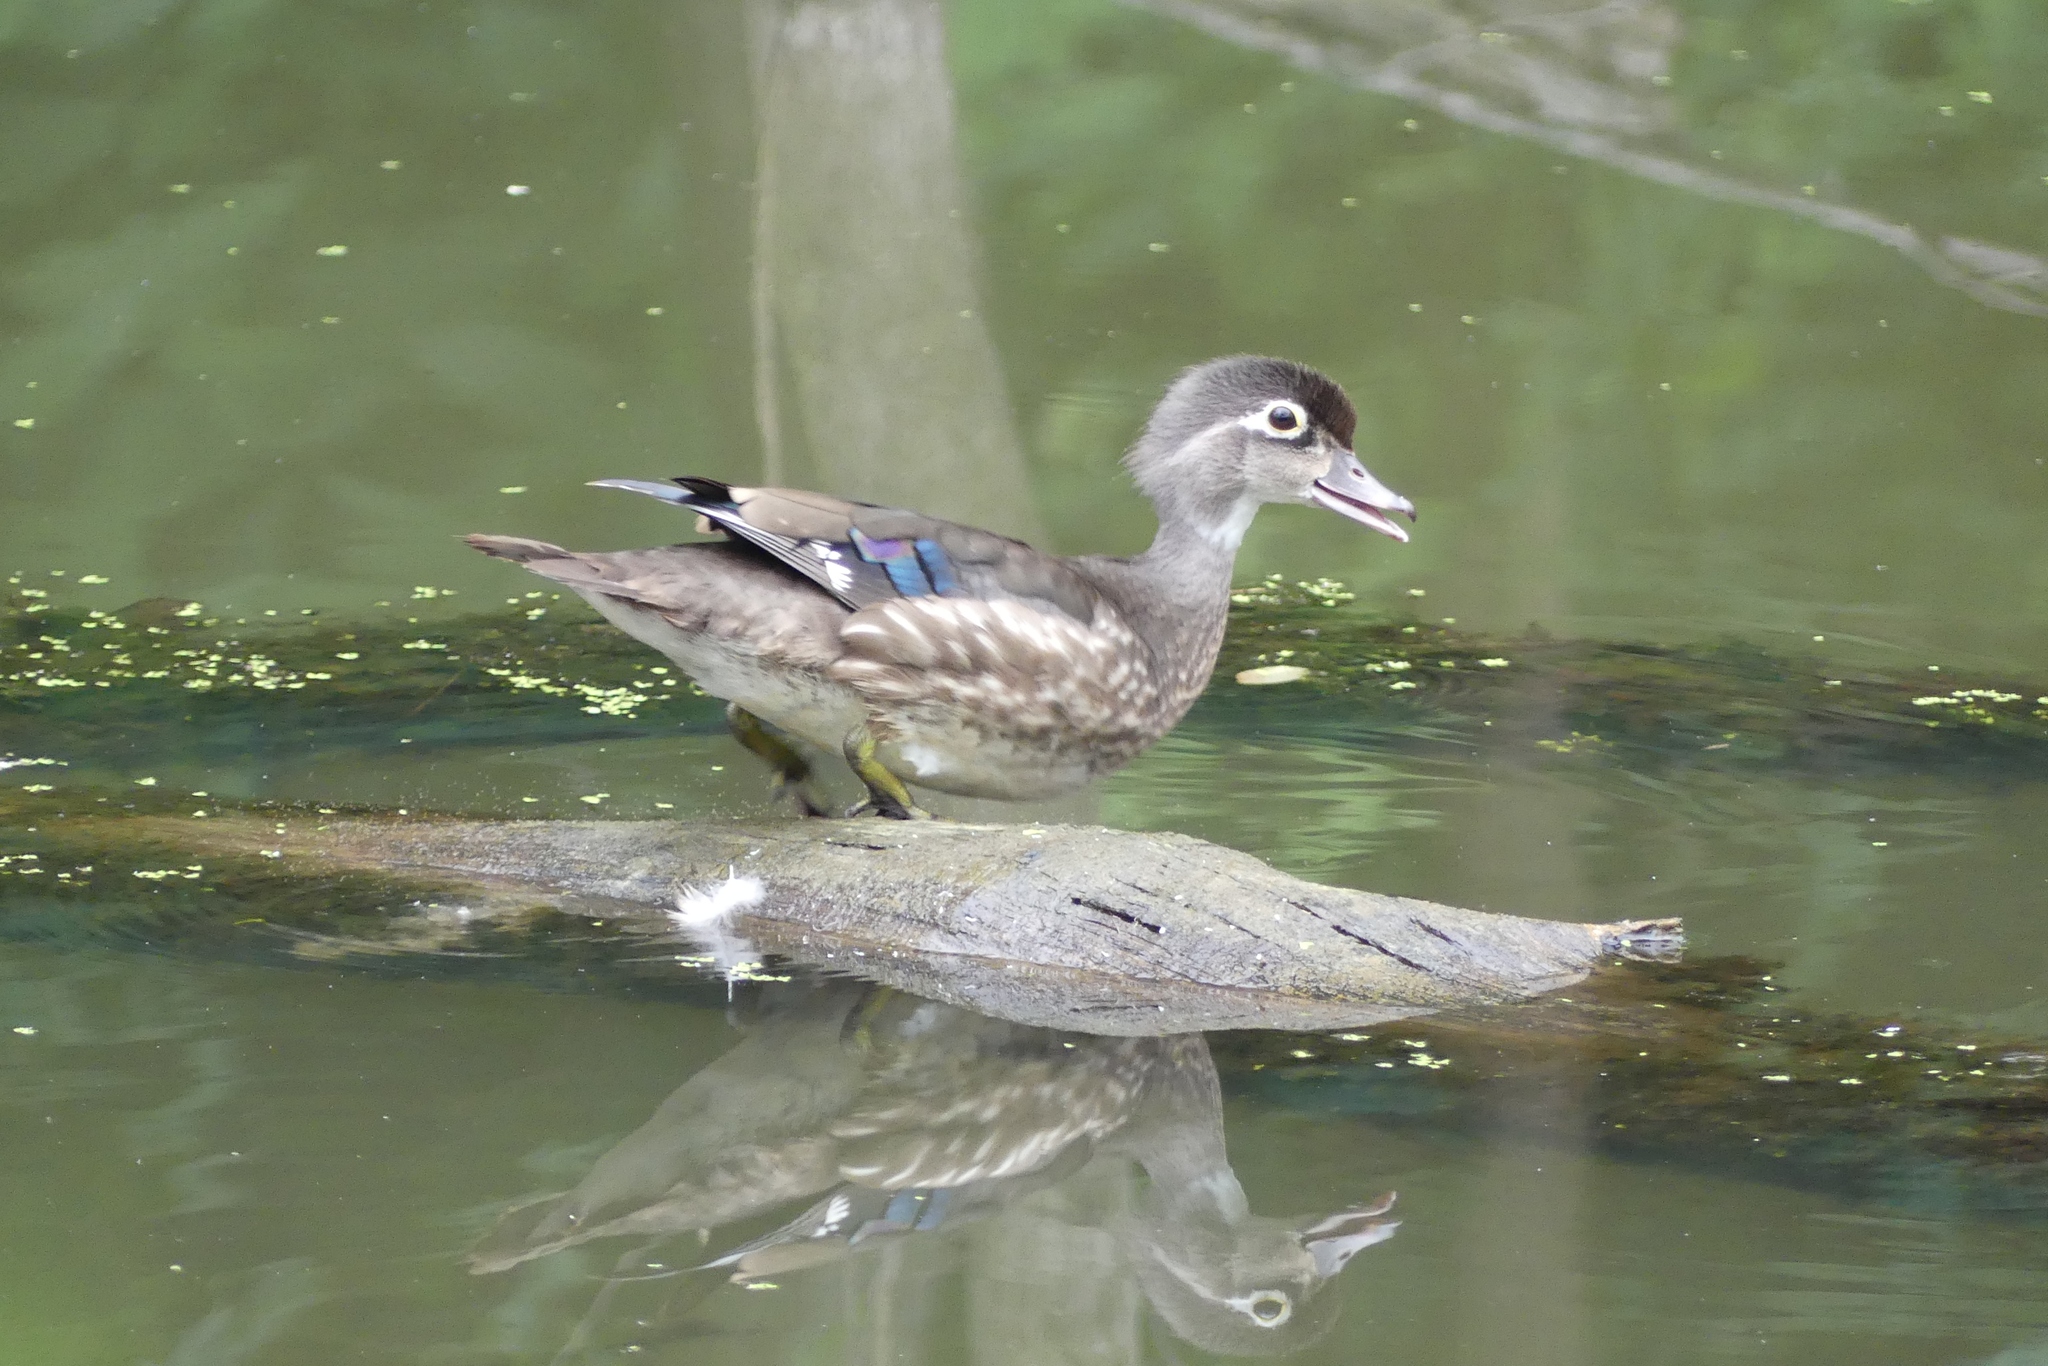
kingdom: Animalia
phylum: Chordata
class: Aves
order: Anseriformes
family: Anatidae
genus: Aix
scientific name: Aix sponsa
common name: Wood duck
